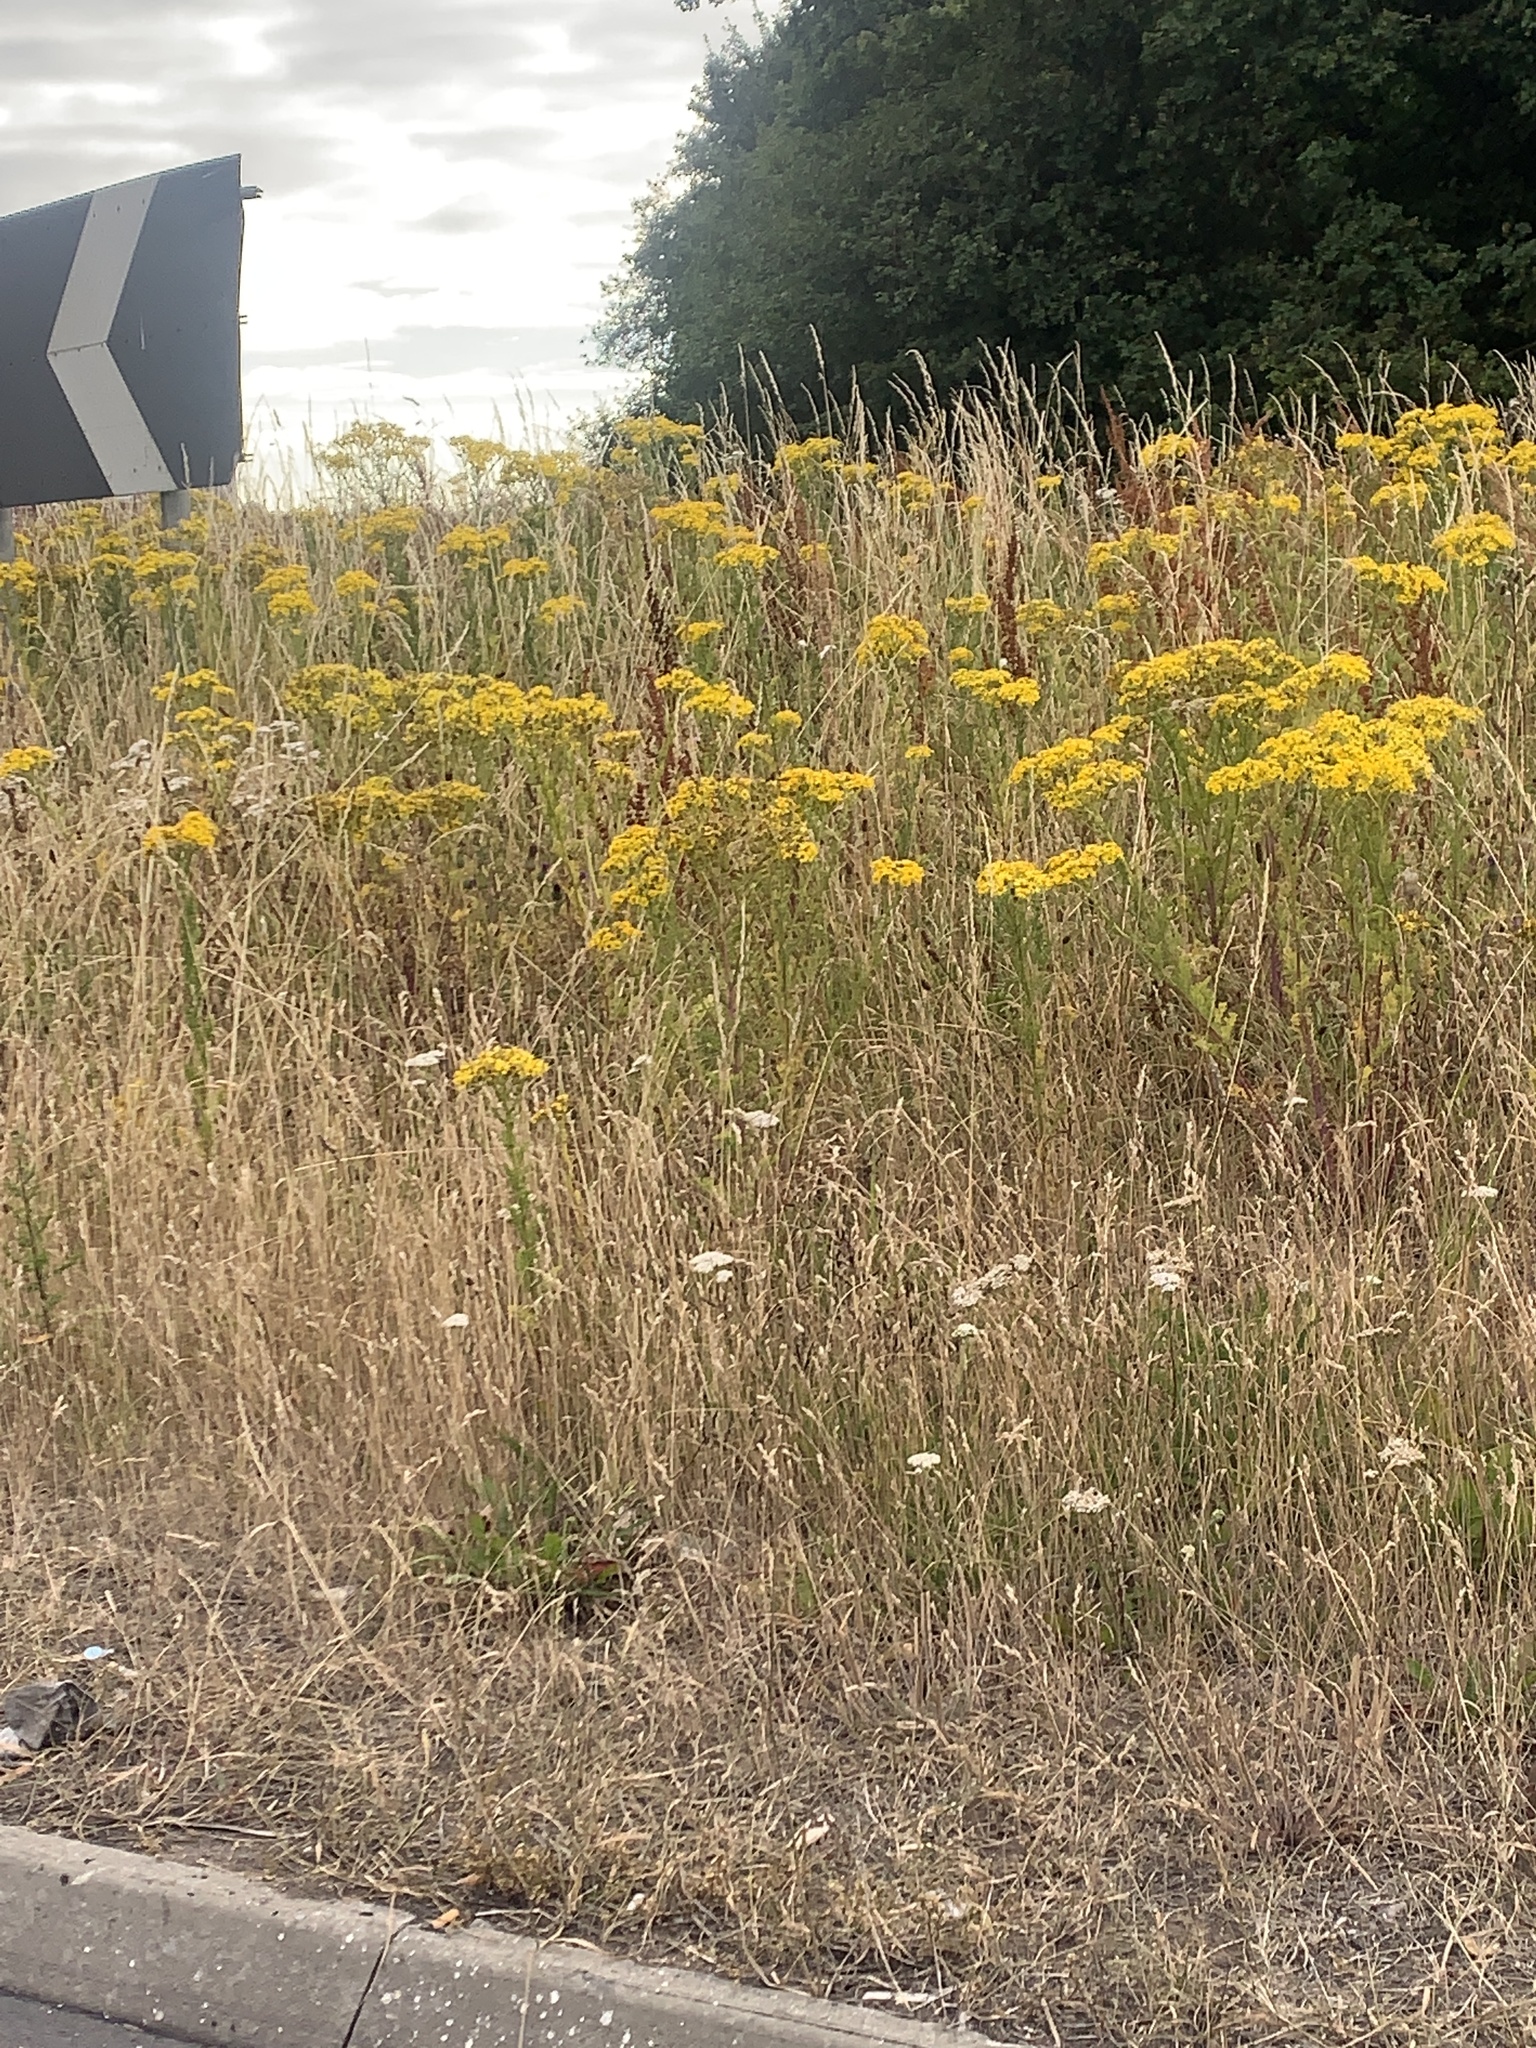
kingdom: Plantae
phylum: Tracheophyta
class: Magnoliopsida
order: Asterales
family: Asteraceae
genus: Jacobaea
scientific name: Jacobaea vulgaris
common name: Stinking willie
